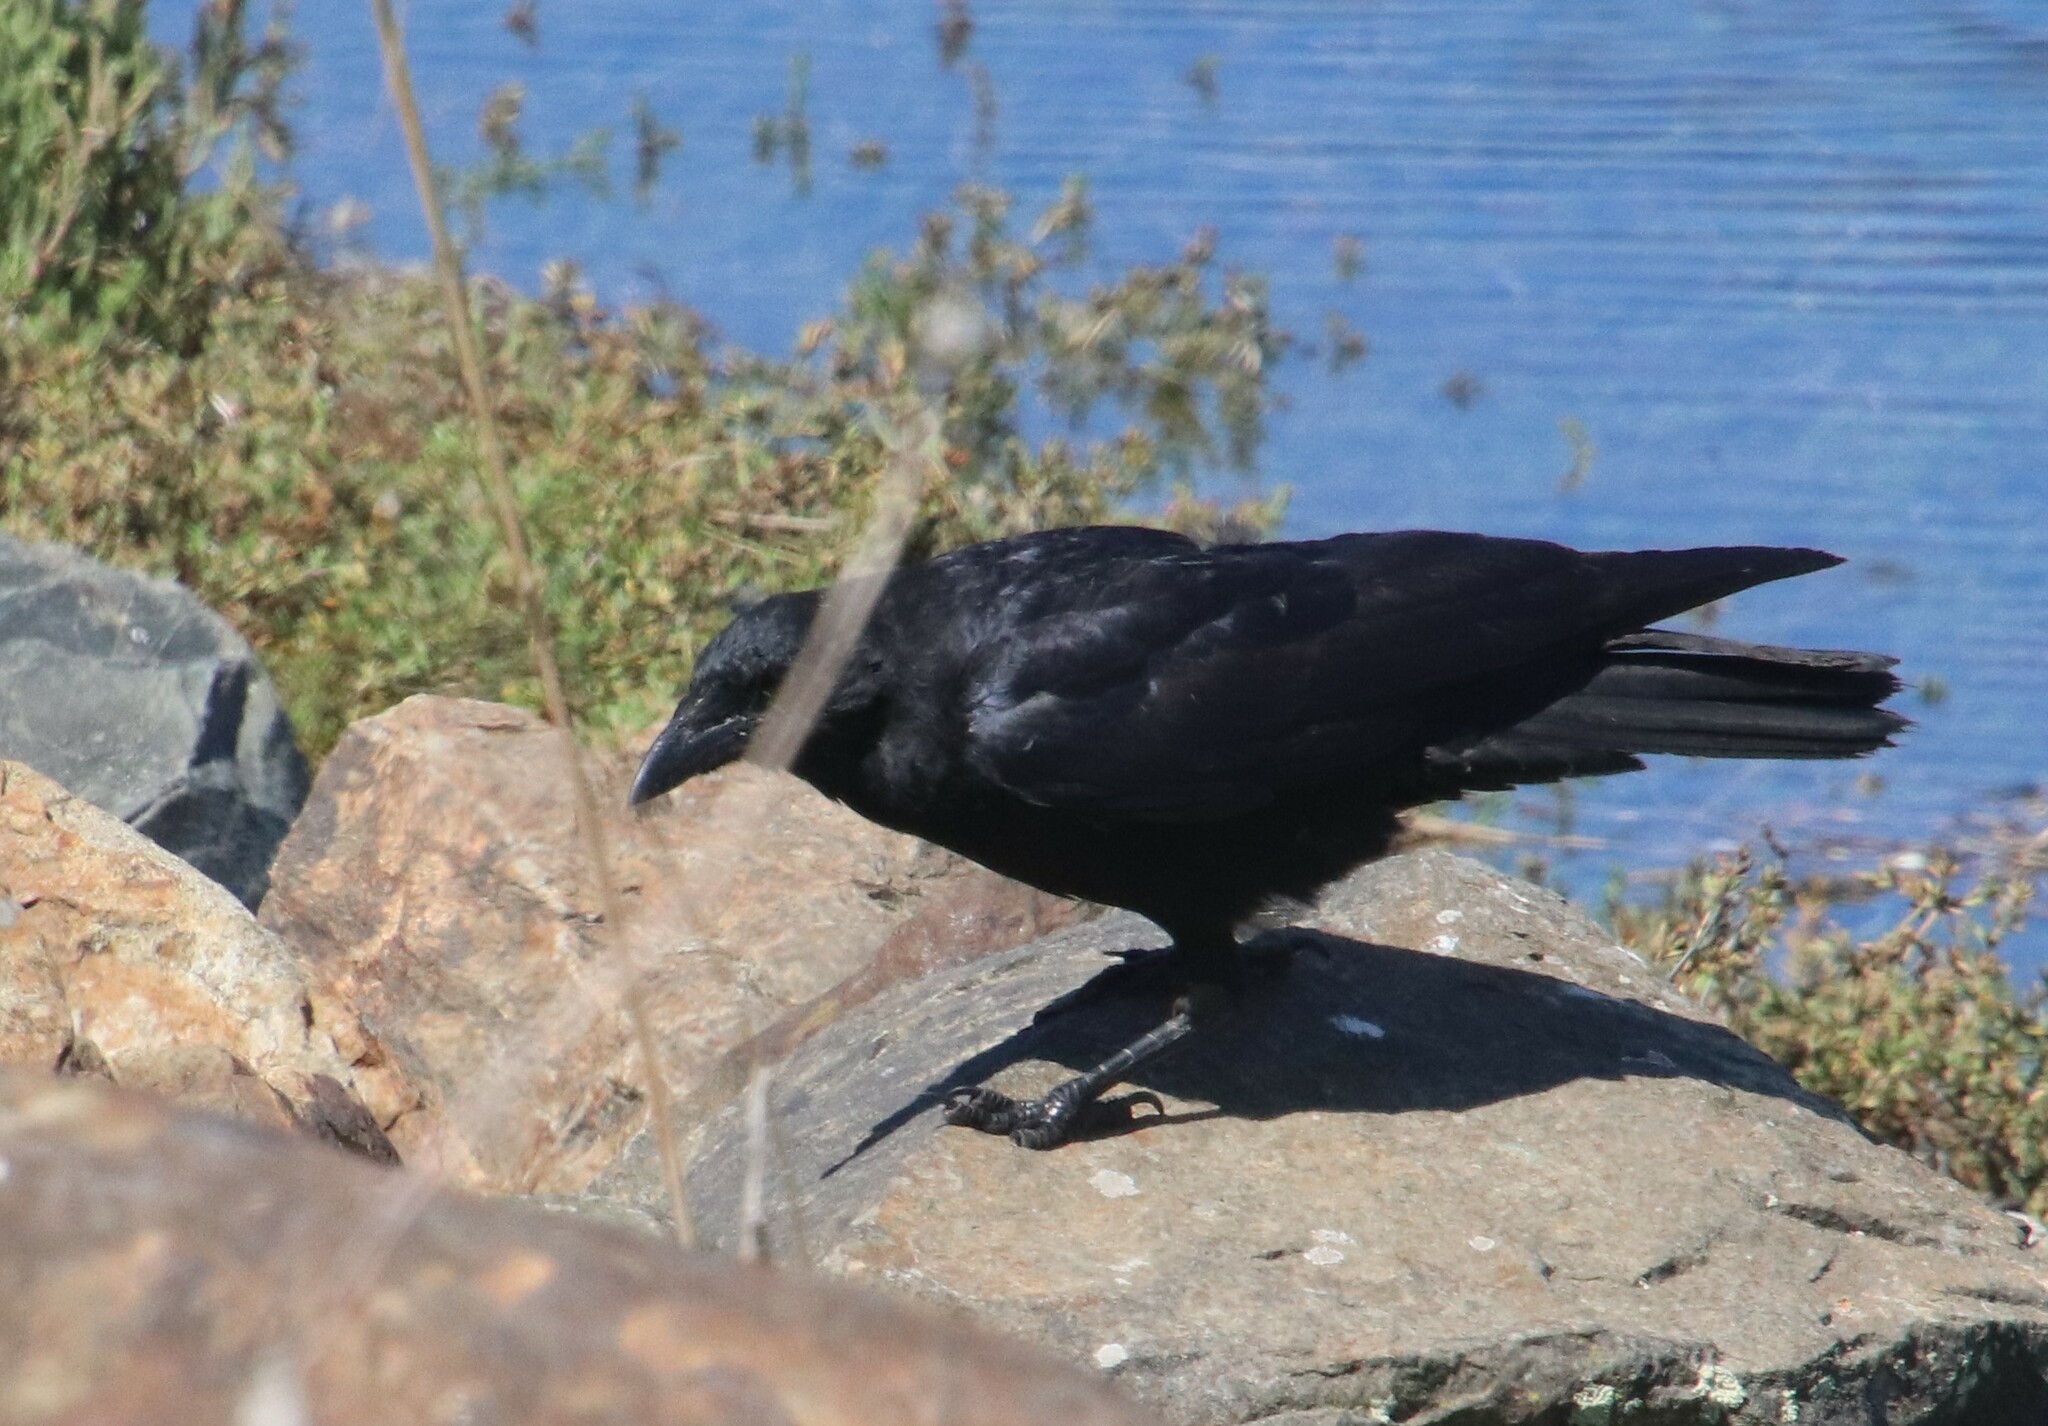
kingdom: Animalia
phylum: Chordata
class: Aves
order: Passeriformes
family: Corvidae
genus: Corvus
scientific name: Corvus brachyrhynchos
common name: American crow
